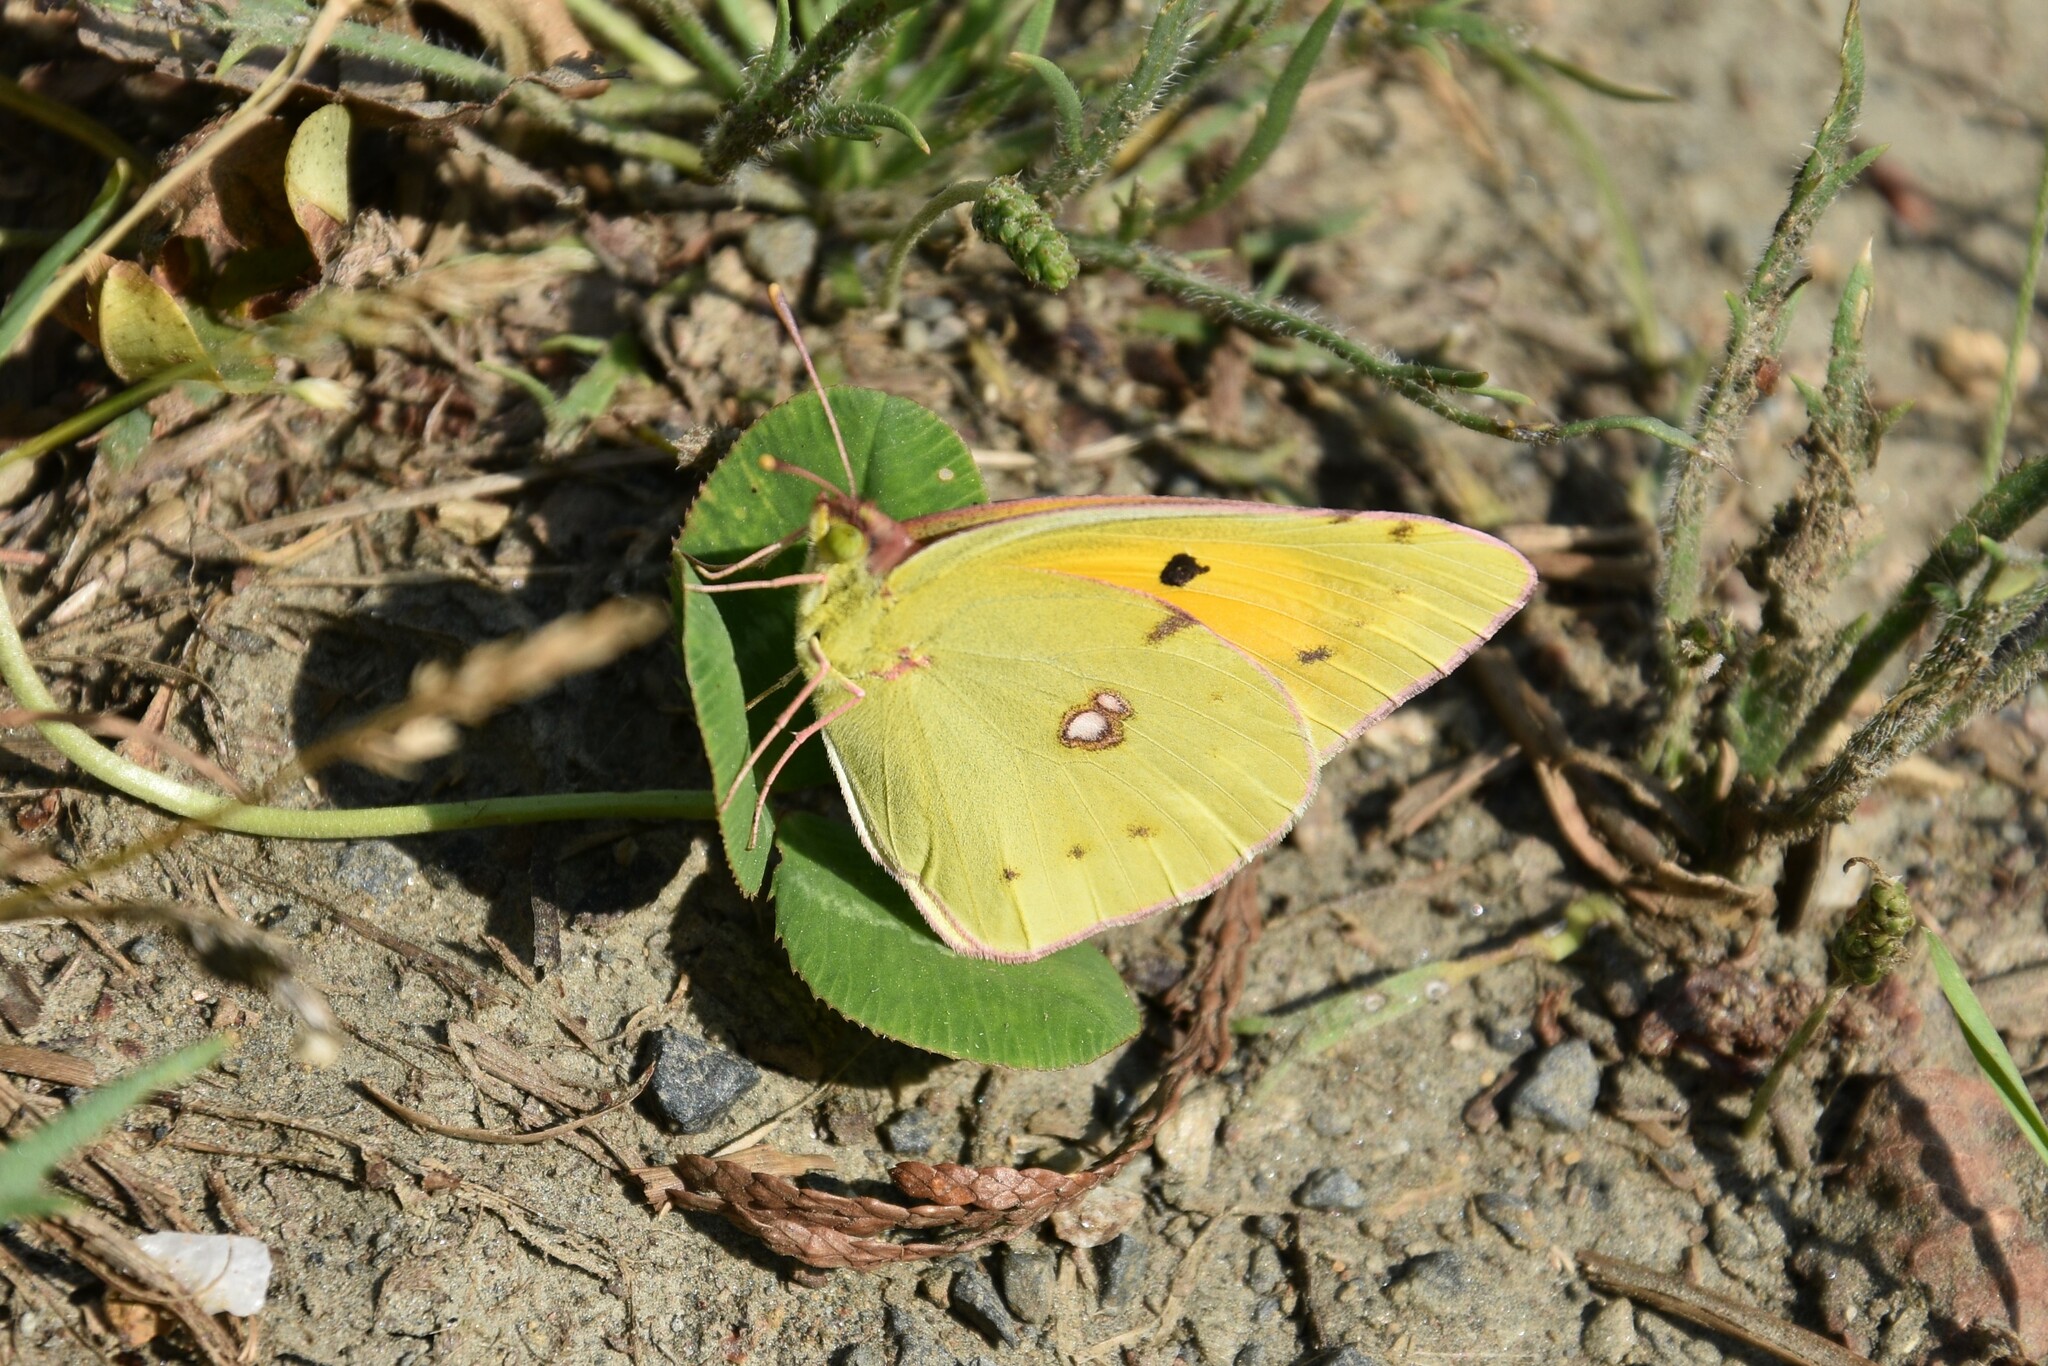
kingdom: Animalia
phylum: Arthropoda
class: Insecta
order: Lepidoptera
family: Pieridae
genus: Colias
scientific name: Colias croceus
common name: Clouded yellow
